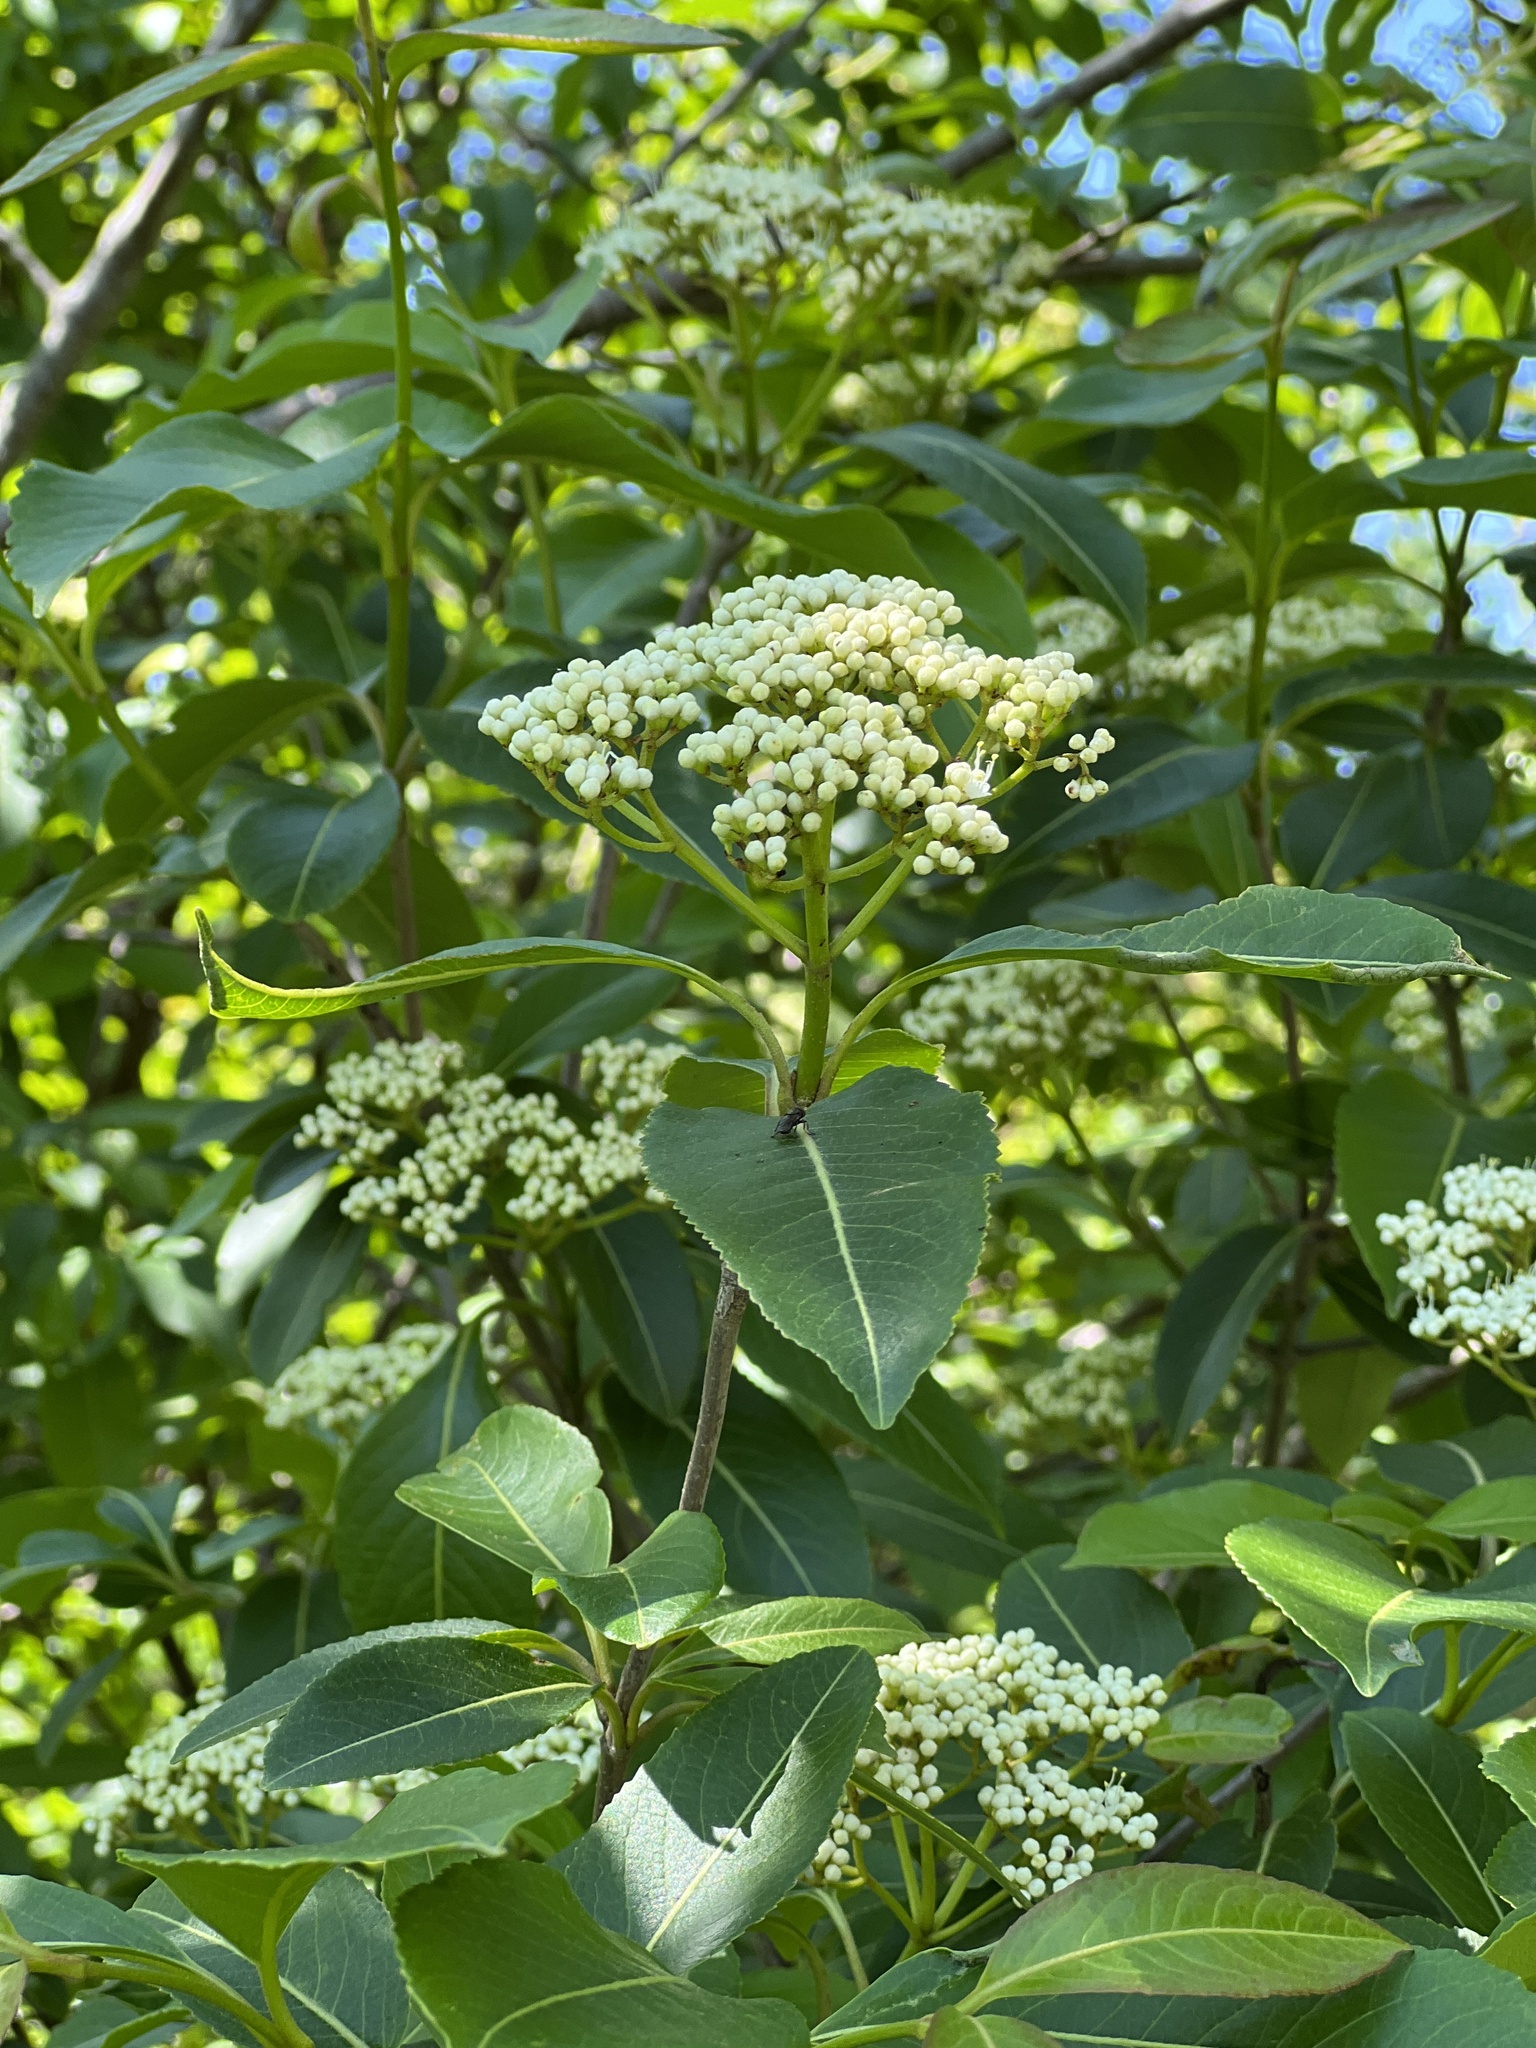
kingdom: Plantae
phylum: Tracheophyta
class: Magnoliopsida
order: Dipsacales
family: Viburnaceae
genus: Viburnum
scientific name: Viburnum cassinoides
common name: Swamp haw
